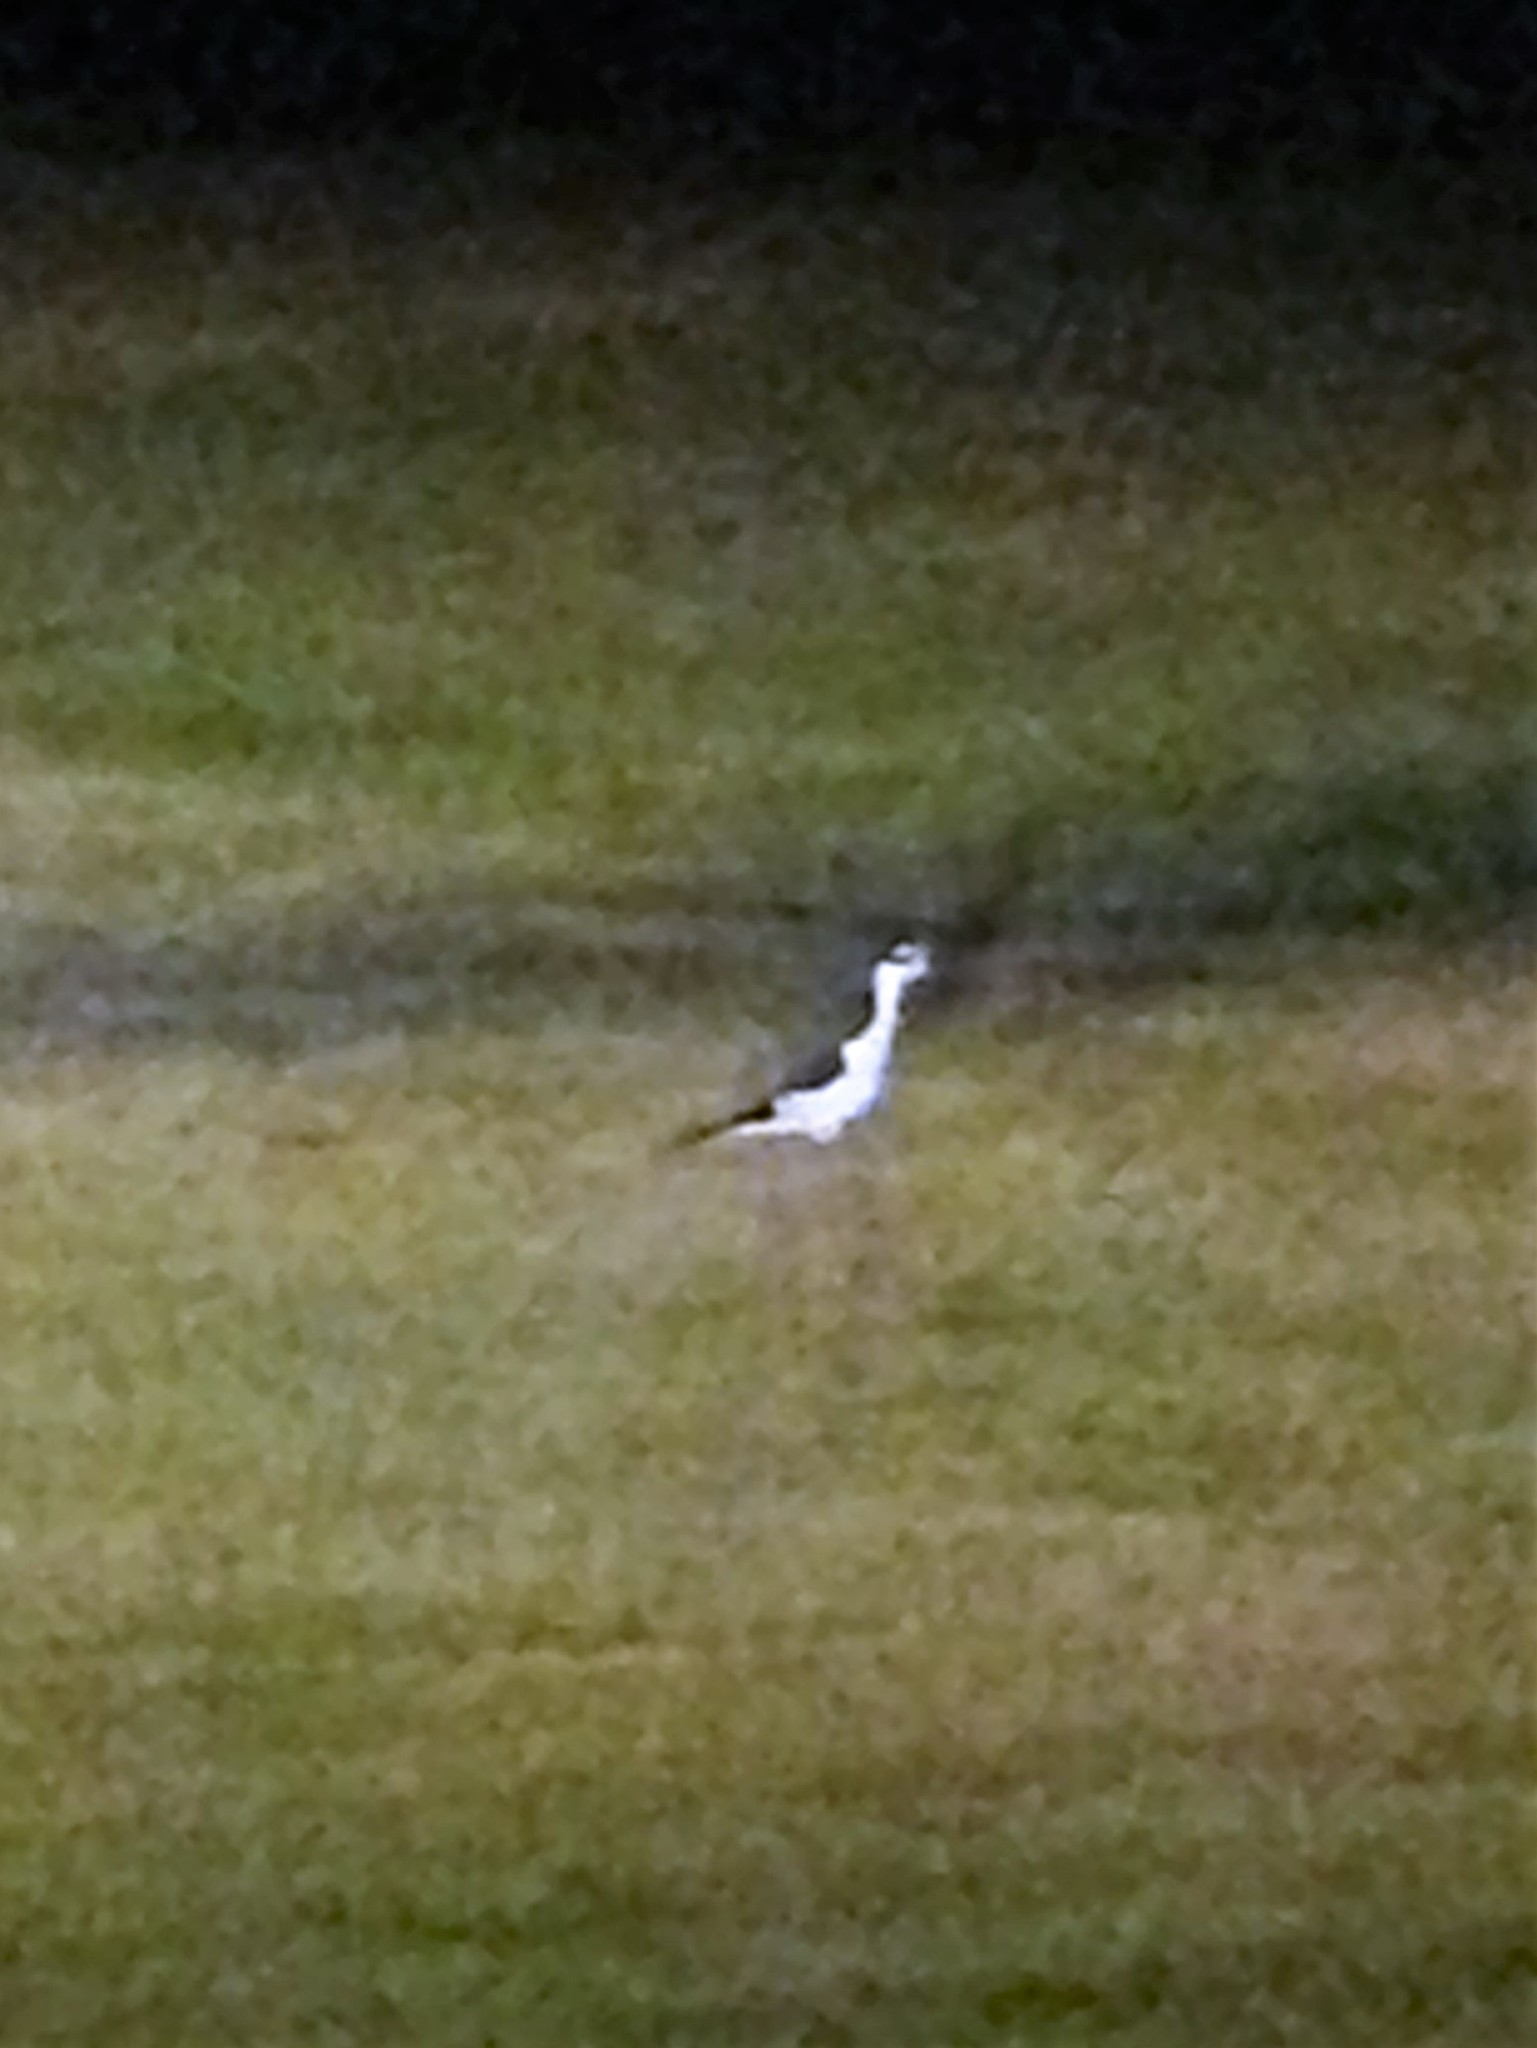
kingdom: Animalia
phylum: Chordata
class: Aves
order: Charadriiformes
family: Recurvirostridae
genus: Himantopus
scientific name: Himantopus mexicanus
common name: Black-necked stilt
